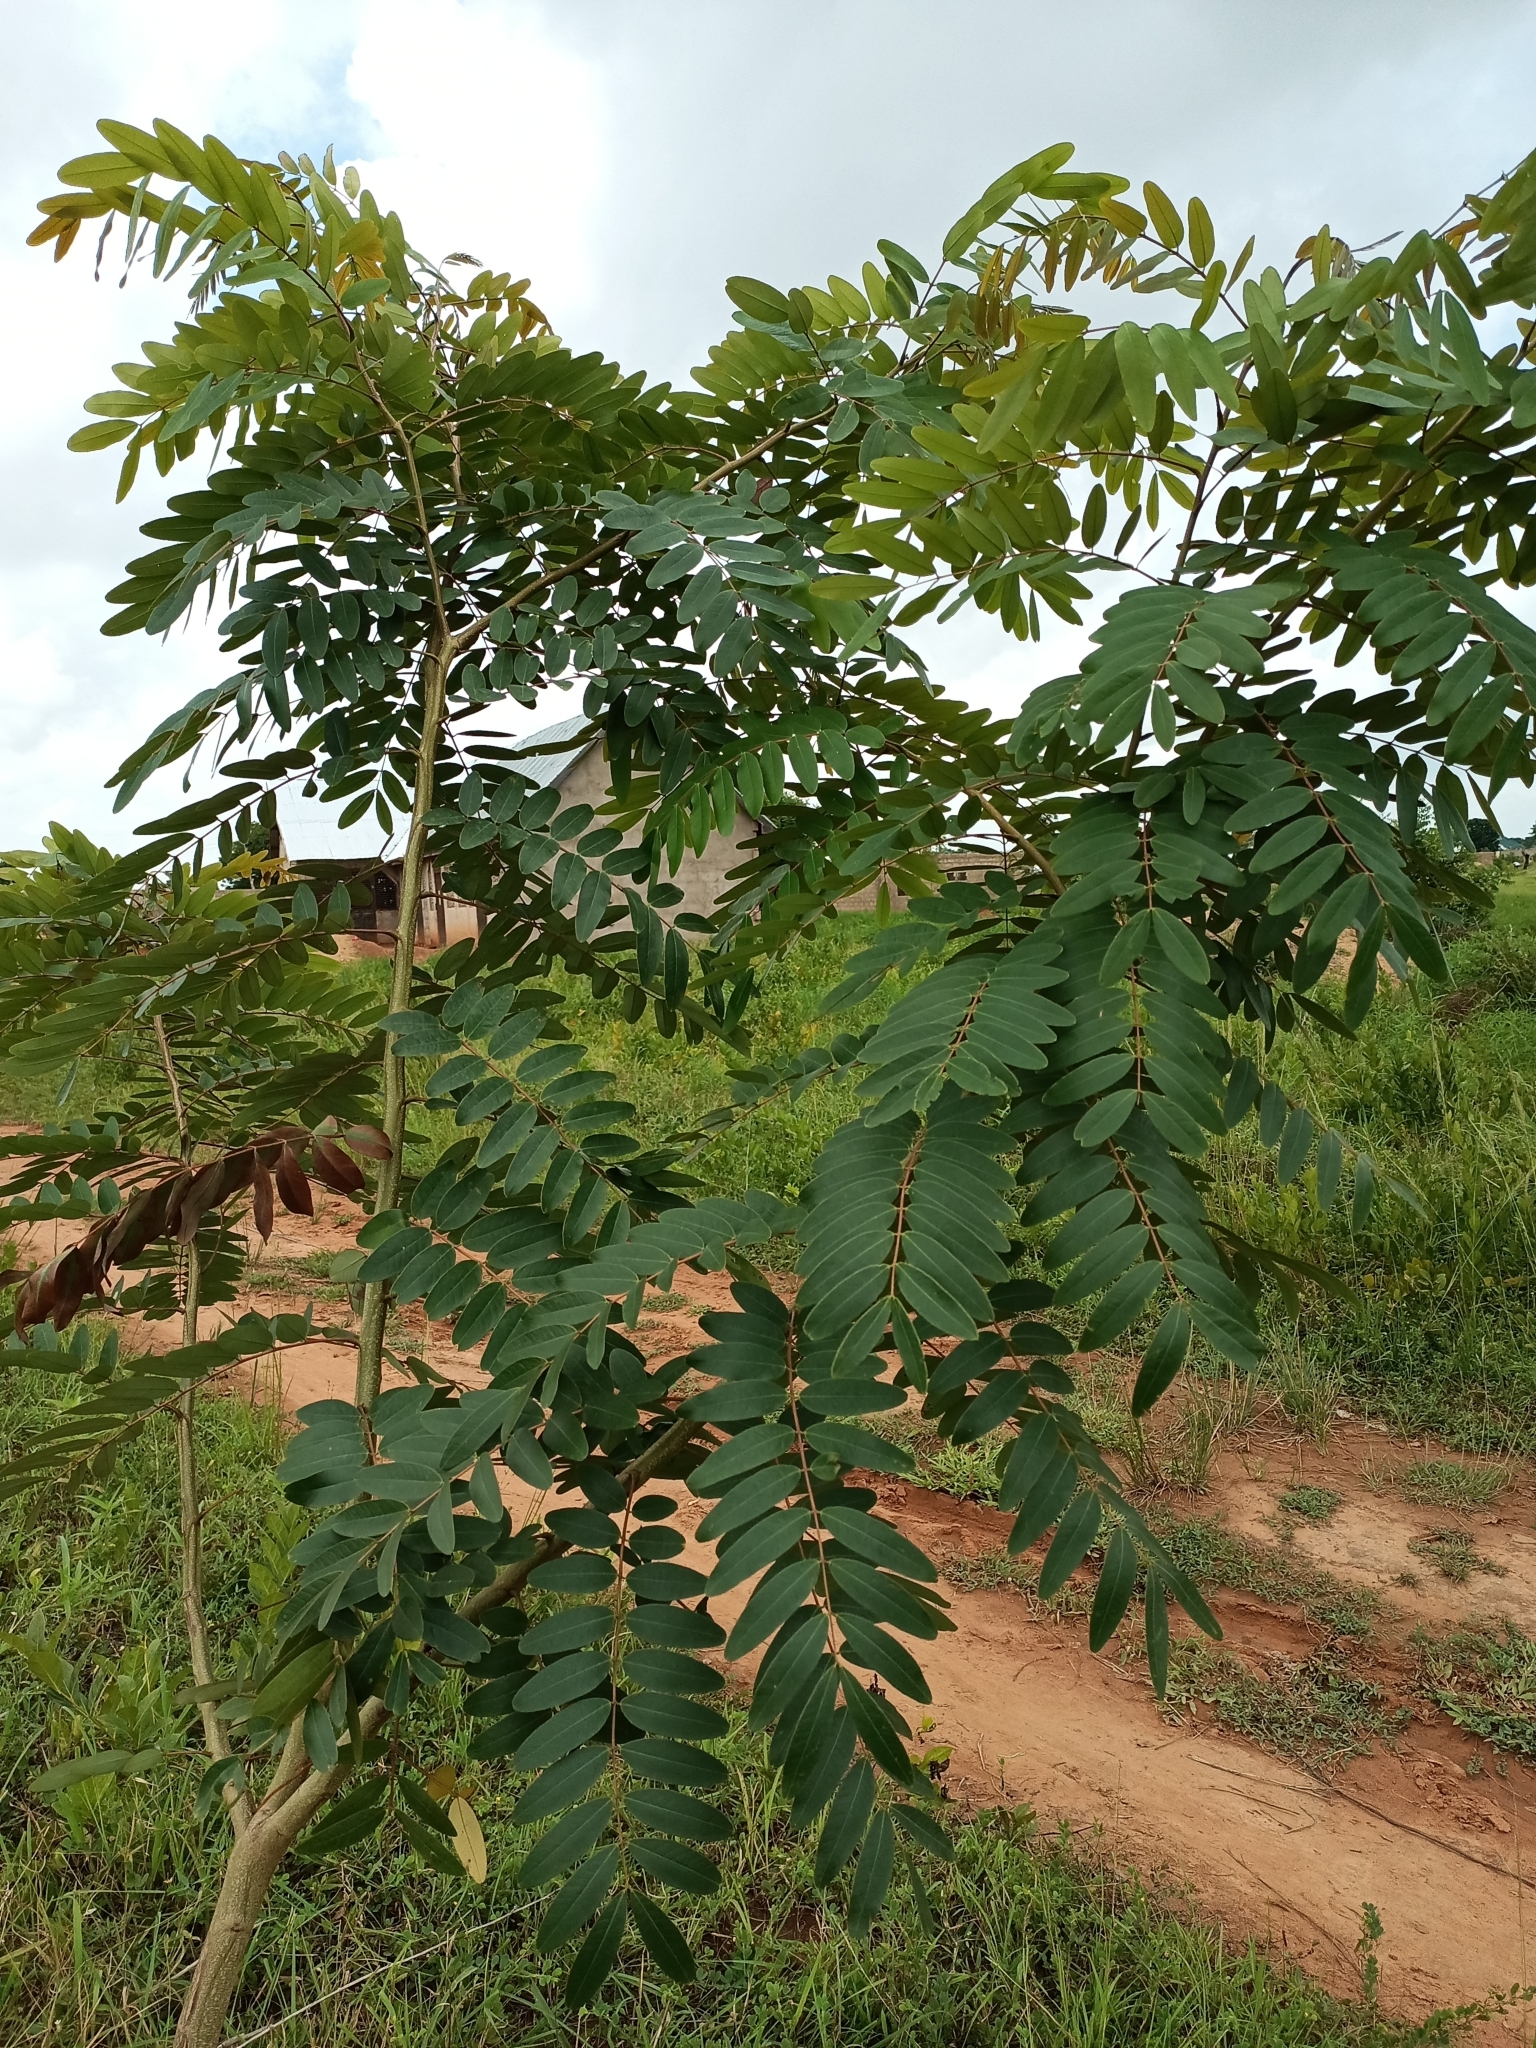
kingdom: Plantae
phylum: Tracheophyta
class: Magnoliopsida
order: Fabales
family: Fabaceae
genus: Senna
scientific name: Senna siamea
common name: Siamese cassia
